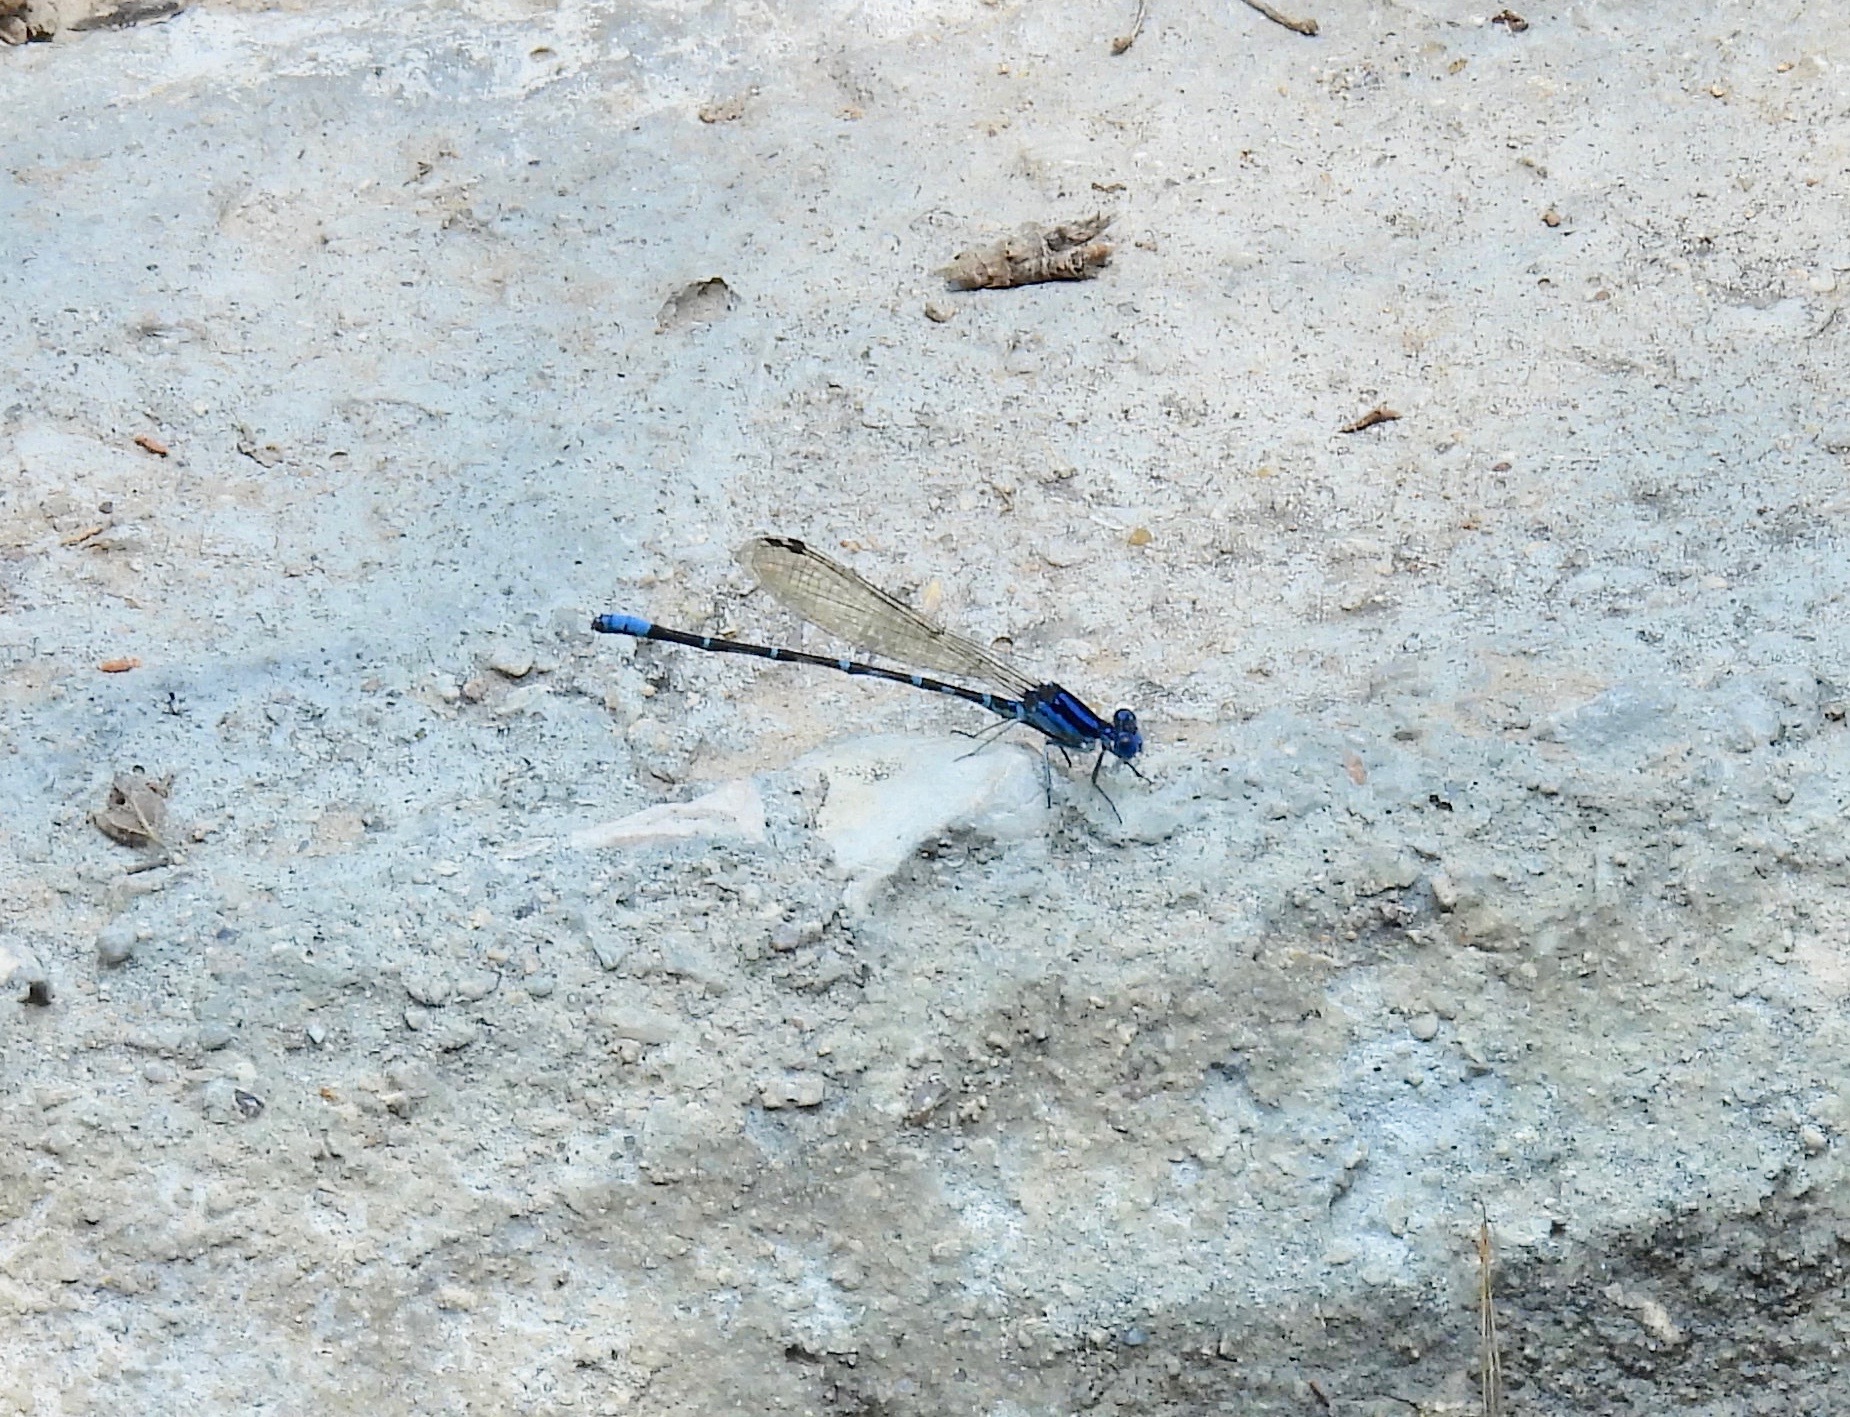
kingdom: Animalia
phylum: Arthropoda
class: Insecta
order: Odonata
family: Coenagrionidae
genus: Argia
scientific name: Argia sedula
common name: Blue-ringed dancer
